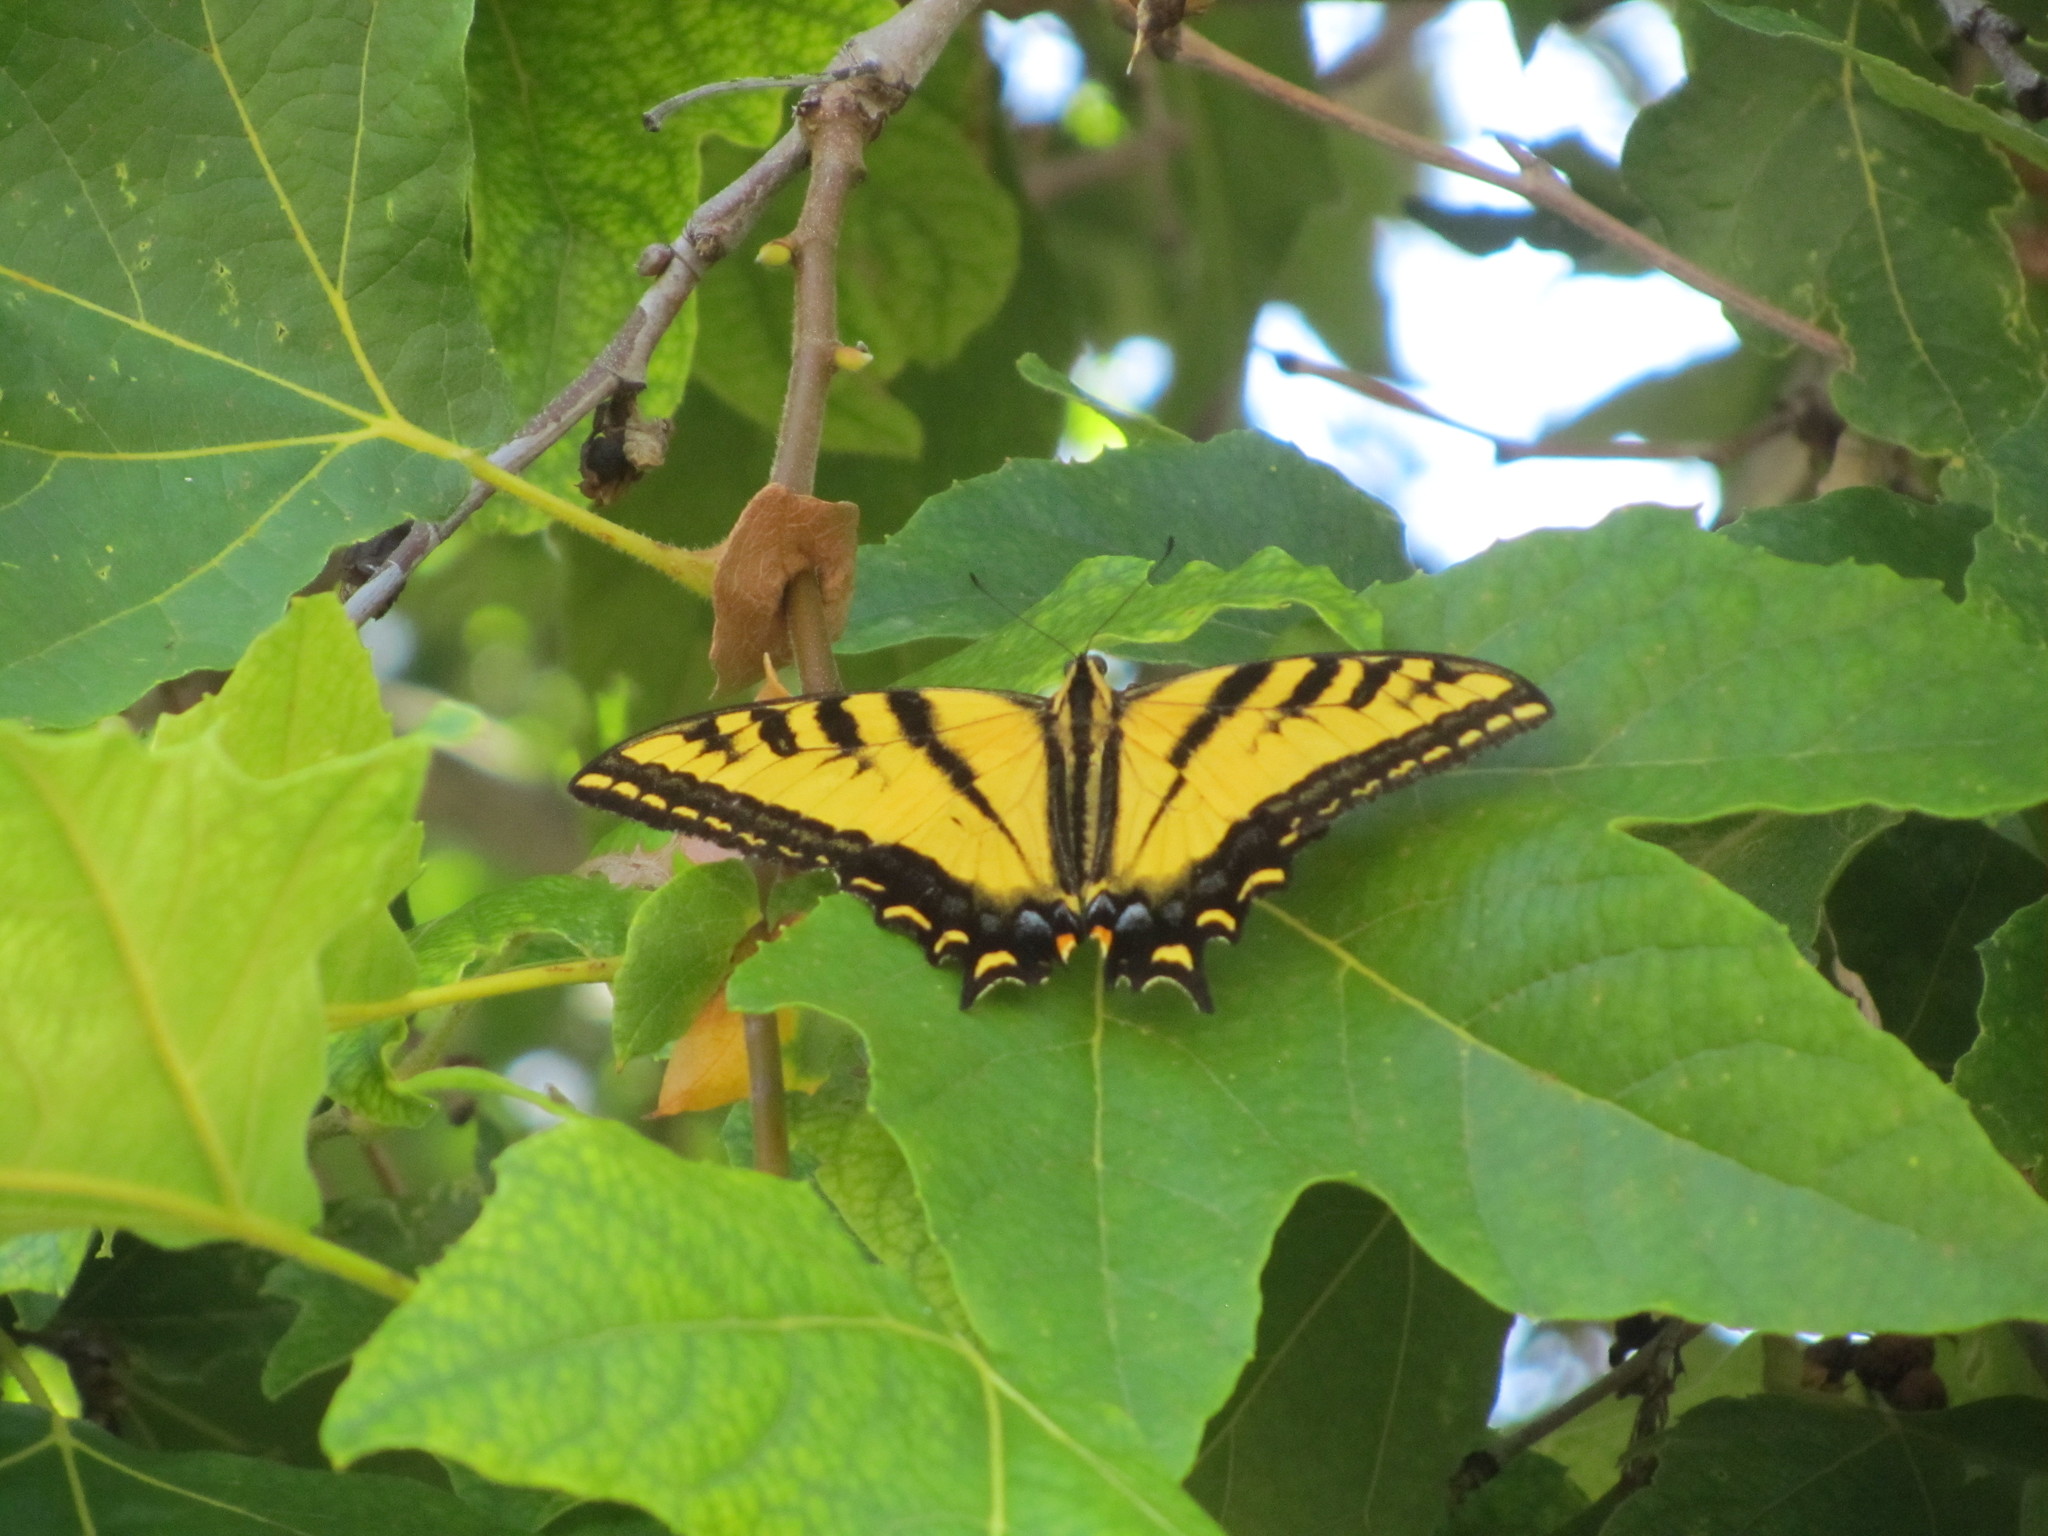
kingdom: Animalia
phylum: Arthropoda
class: Insecta
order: Lepidoptera
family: Papilionidae
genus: Papilio
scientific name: Papilio rutulus
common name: Western tiger swallowtail
